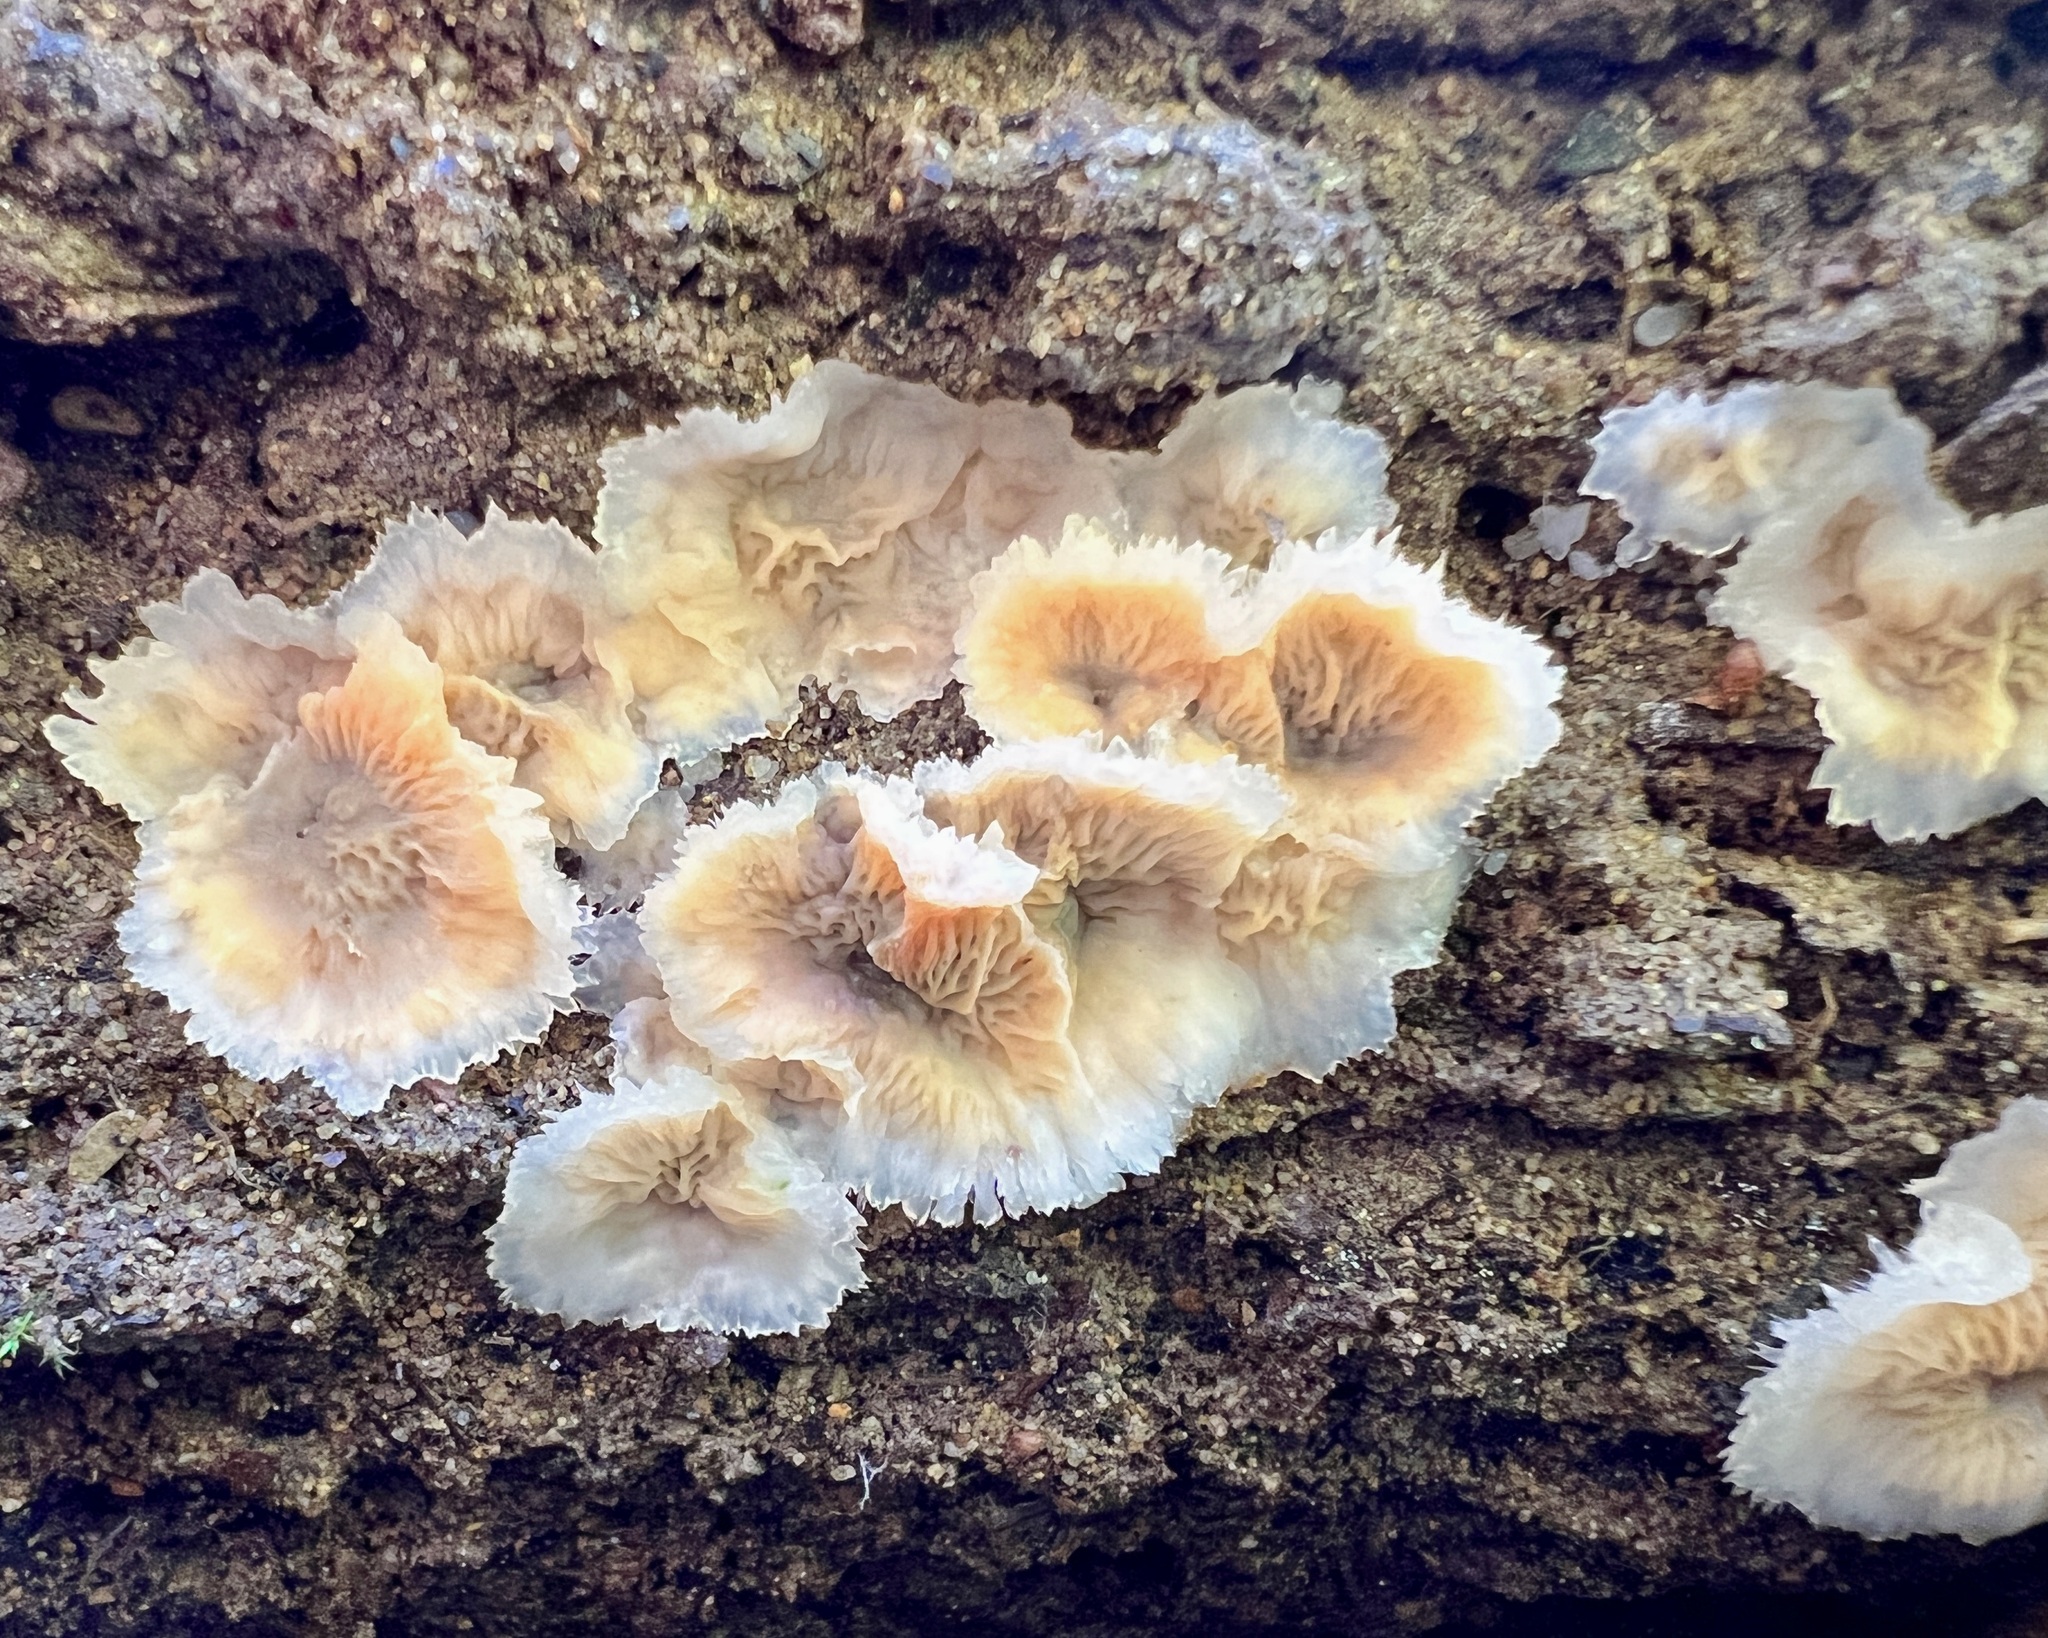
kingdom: Fungi
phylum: Basidiomycota
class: Agaricomycetes
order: Polyporales
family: Meruliaceae
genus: Phlebia
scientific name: Phlebia tremellosa
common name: Jelly rot
